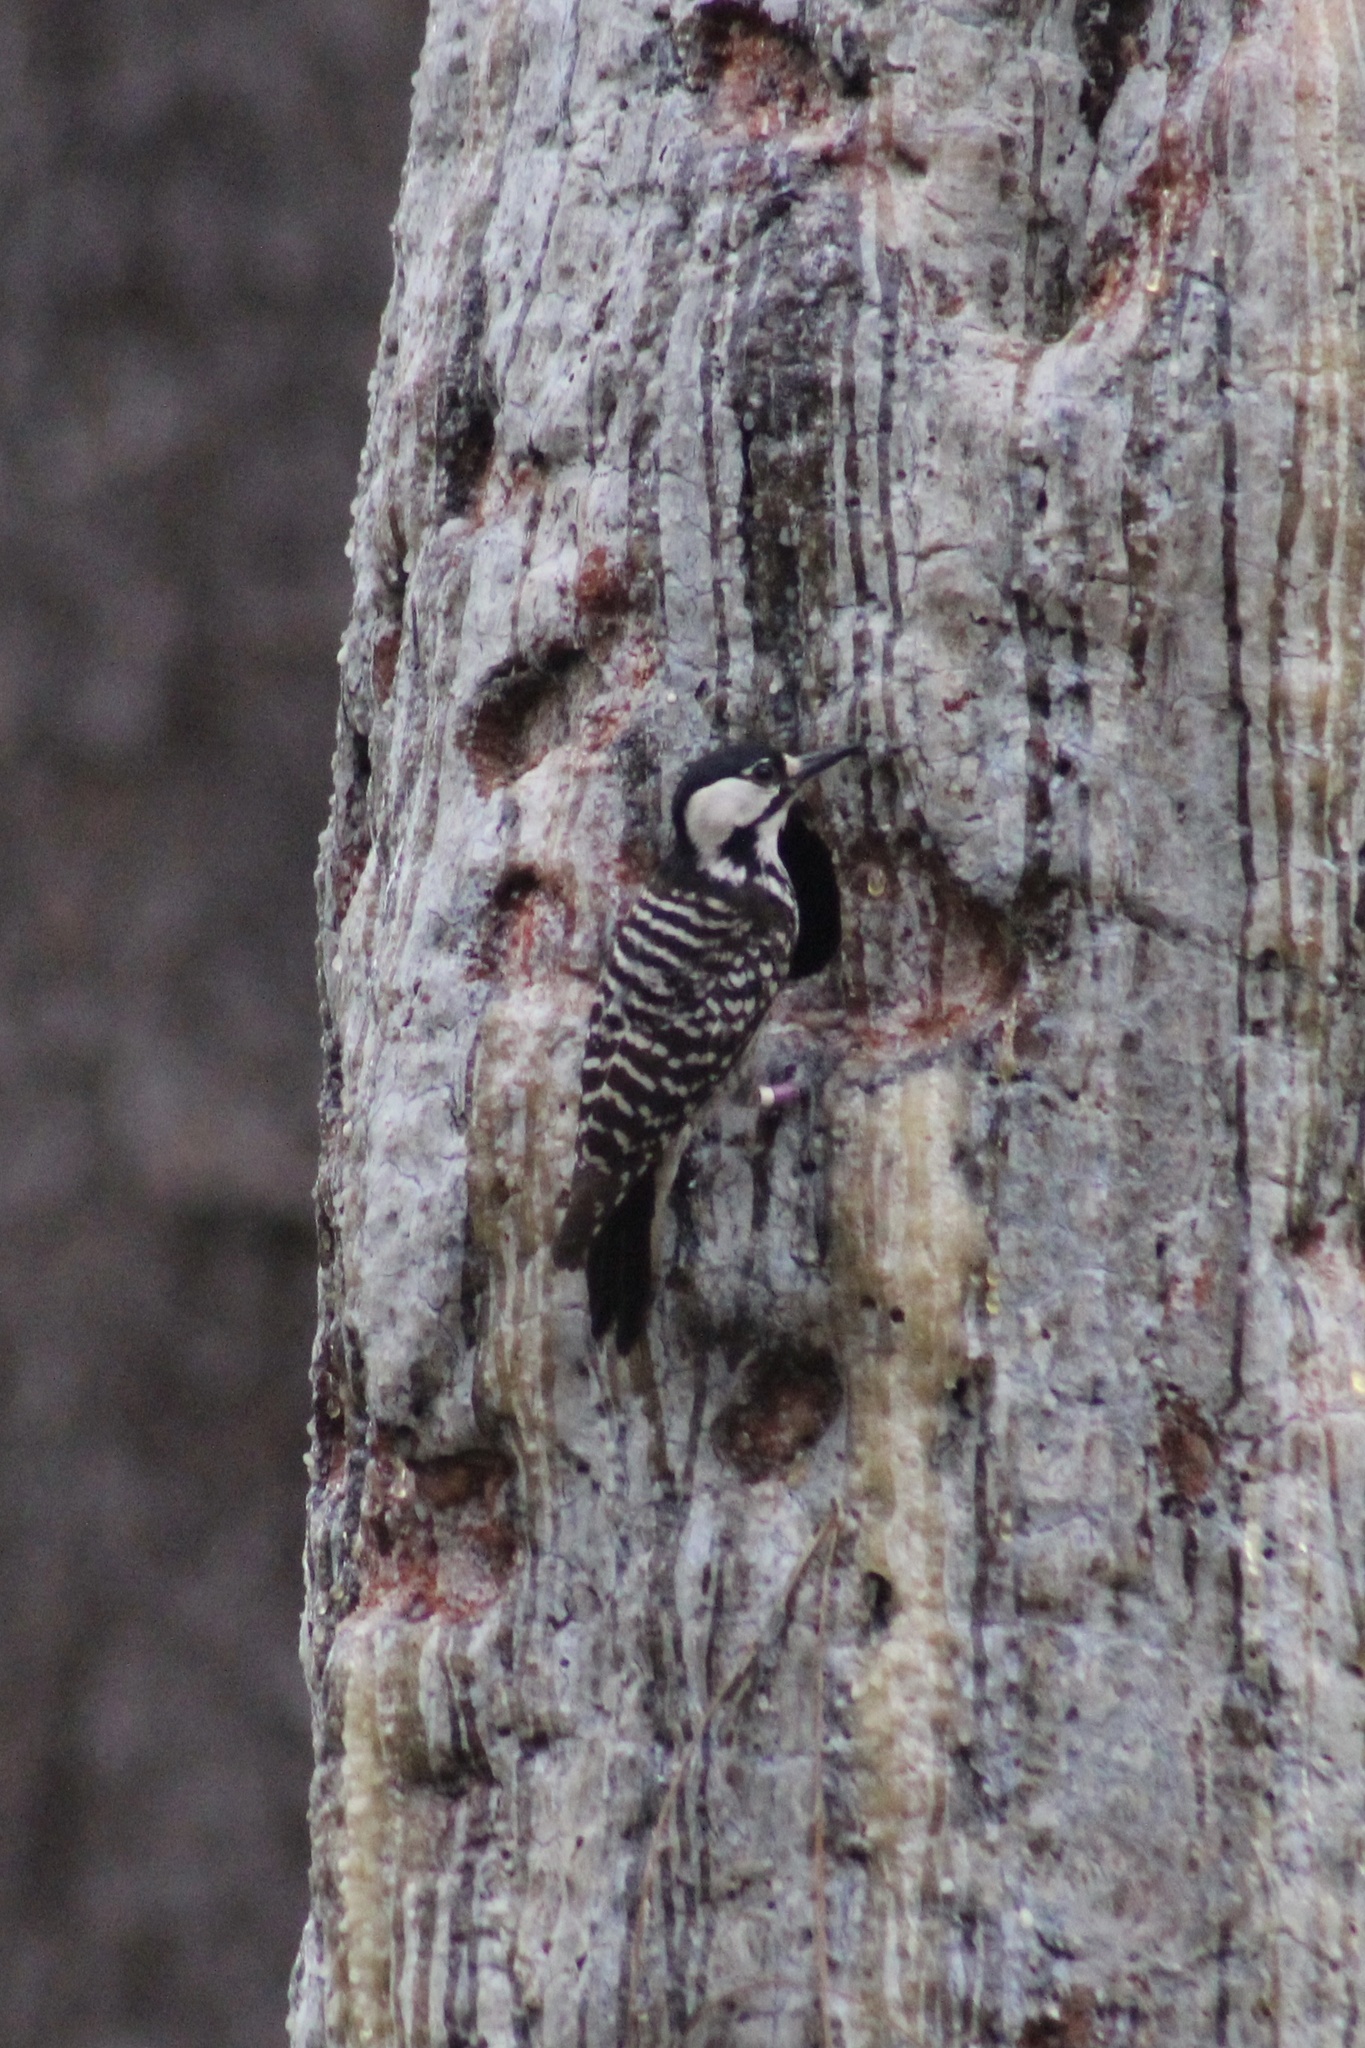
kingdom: Animalia
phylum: Chordata
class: Aves
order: Piciformes
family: Picidae
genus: Leuconotopicus
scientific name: Leuconotopicus borealis
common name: Red-cockaded woodpecker
